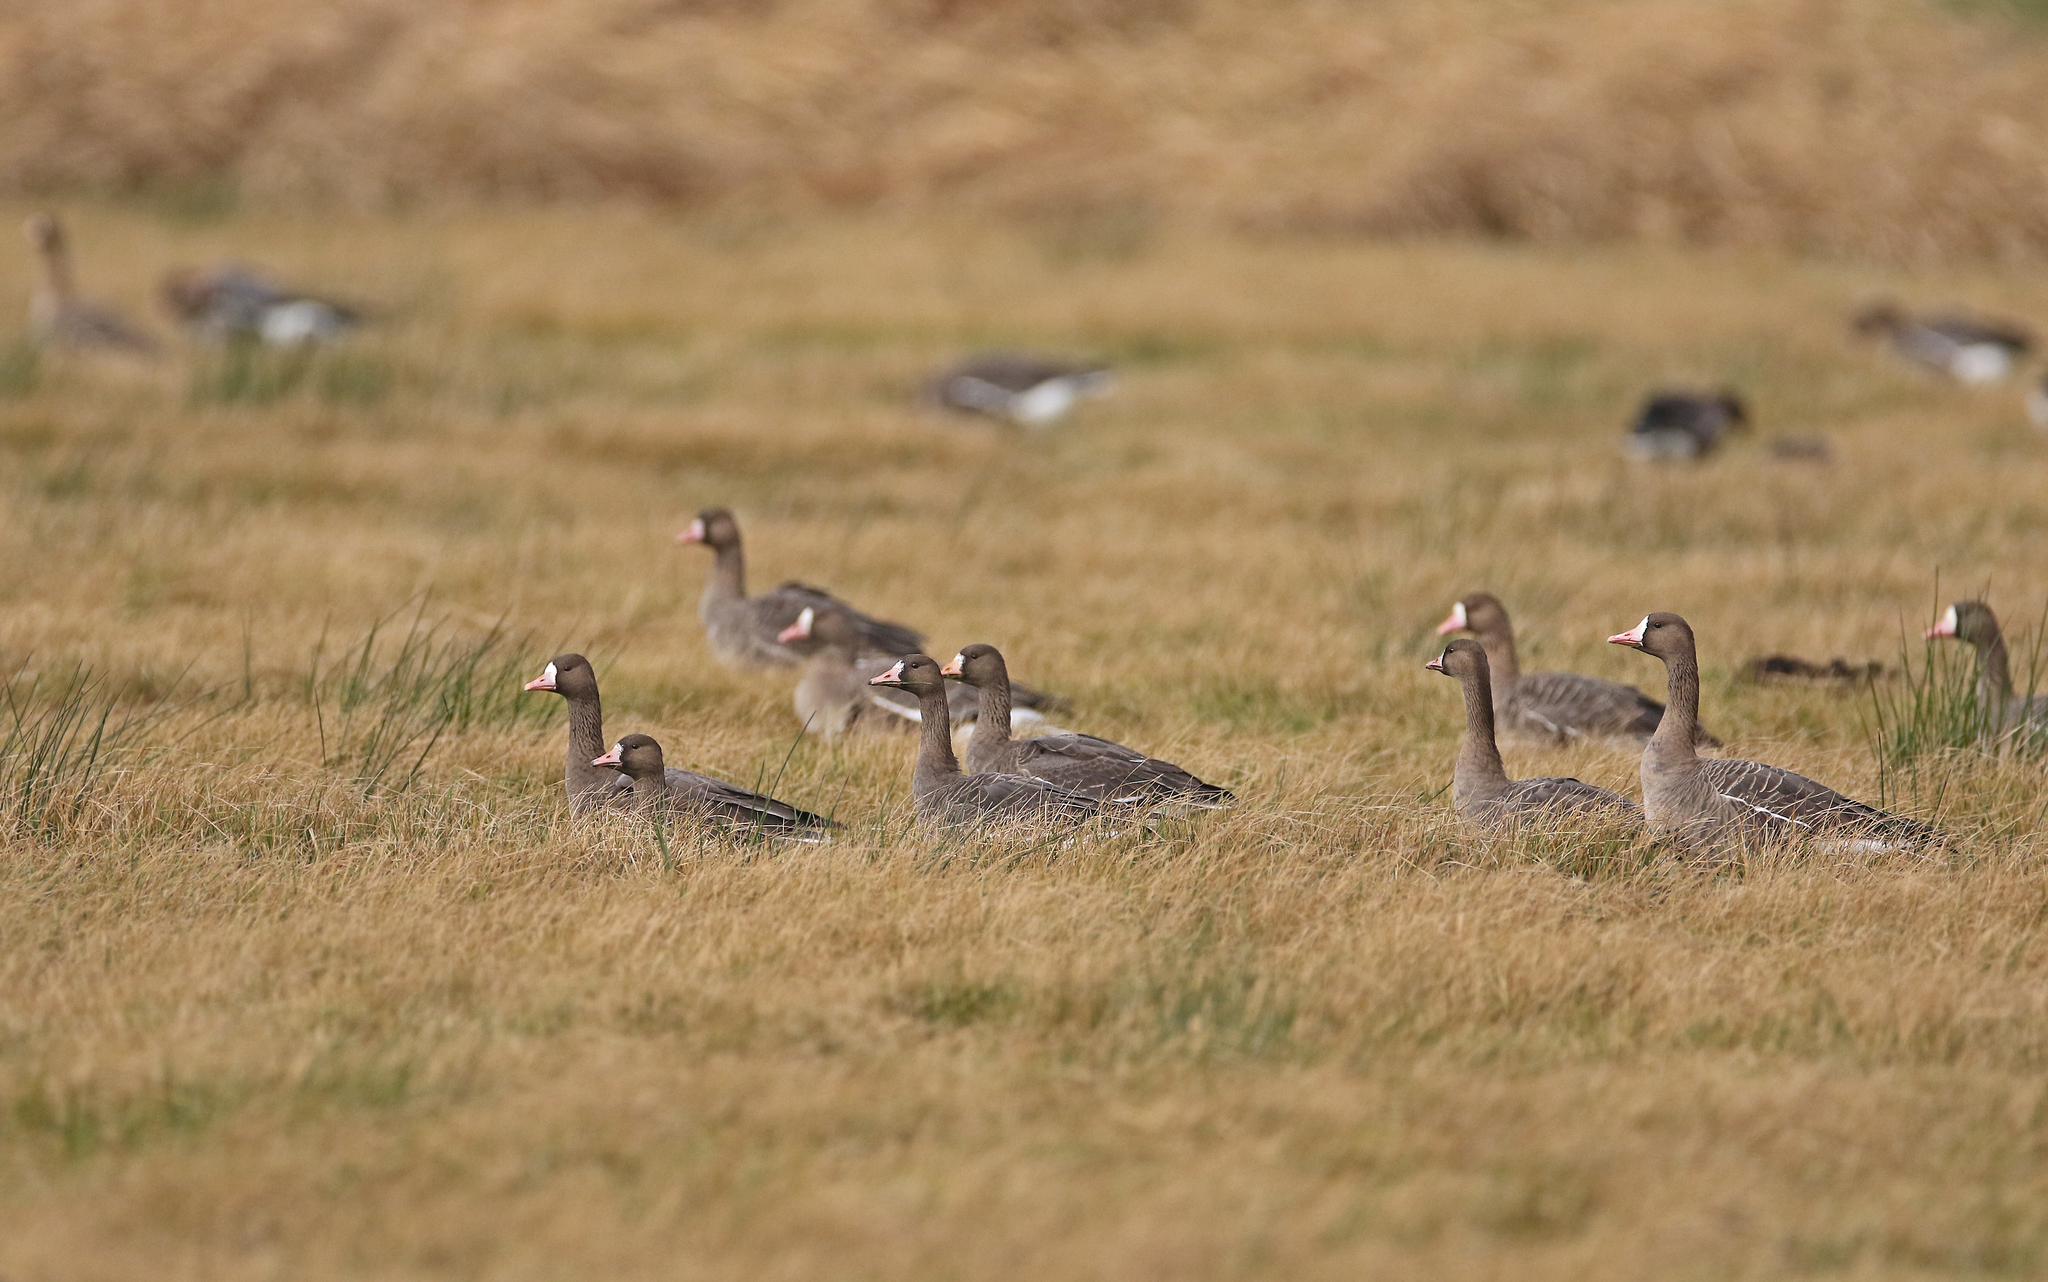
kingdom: Animalia
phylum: Chordata
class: Aves
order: Anseriformes
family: Anatidae
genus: Anser
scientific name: Anser albifrons
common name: Greater white-fronted goose
